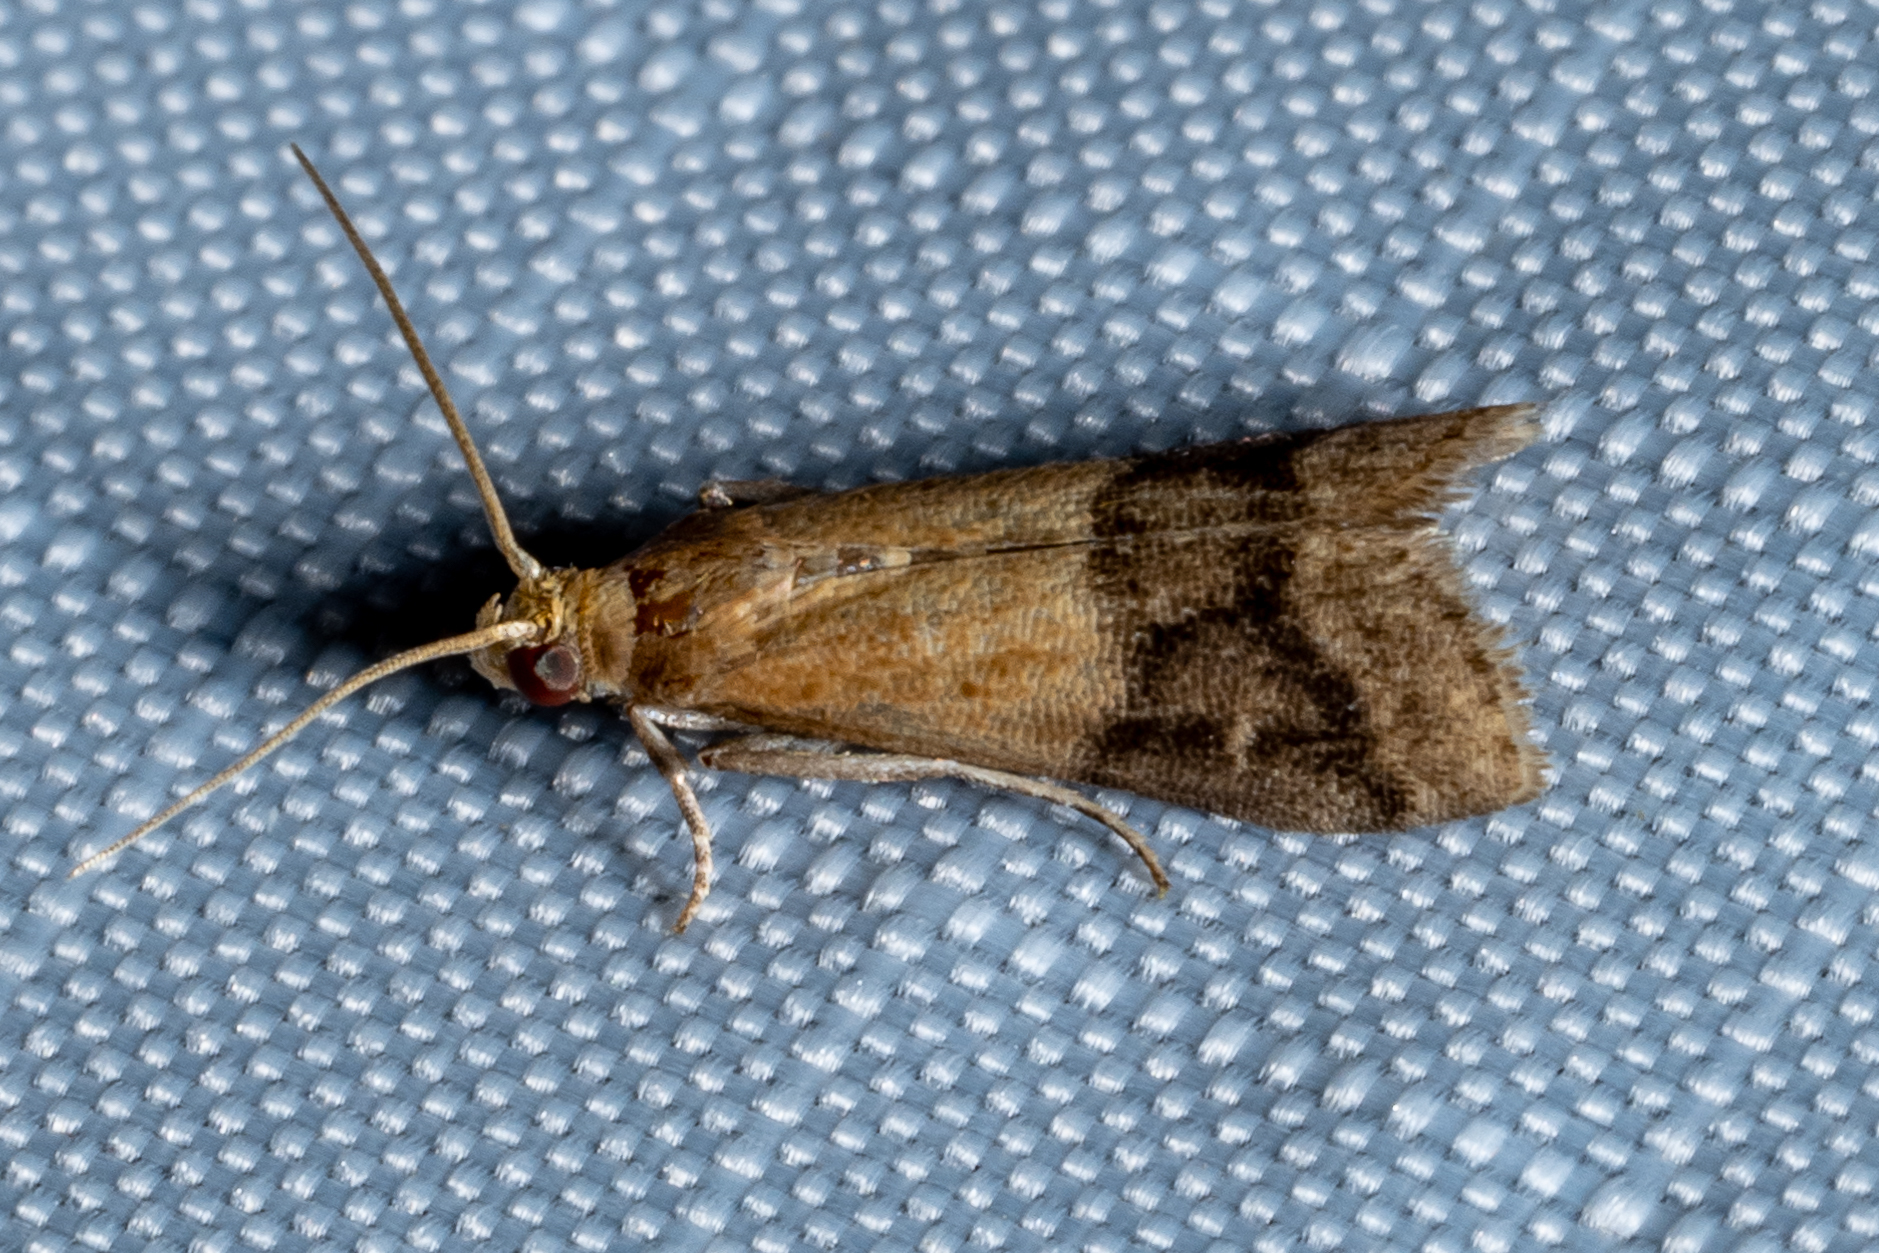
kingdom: Animalia
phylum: Arthropoda
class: Insecta
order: Lepidoptera
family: Pyralidae
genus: Eulogia
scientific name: Eulogia ochrifrontella
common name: Broad-banded eulogia moth
